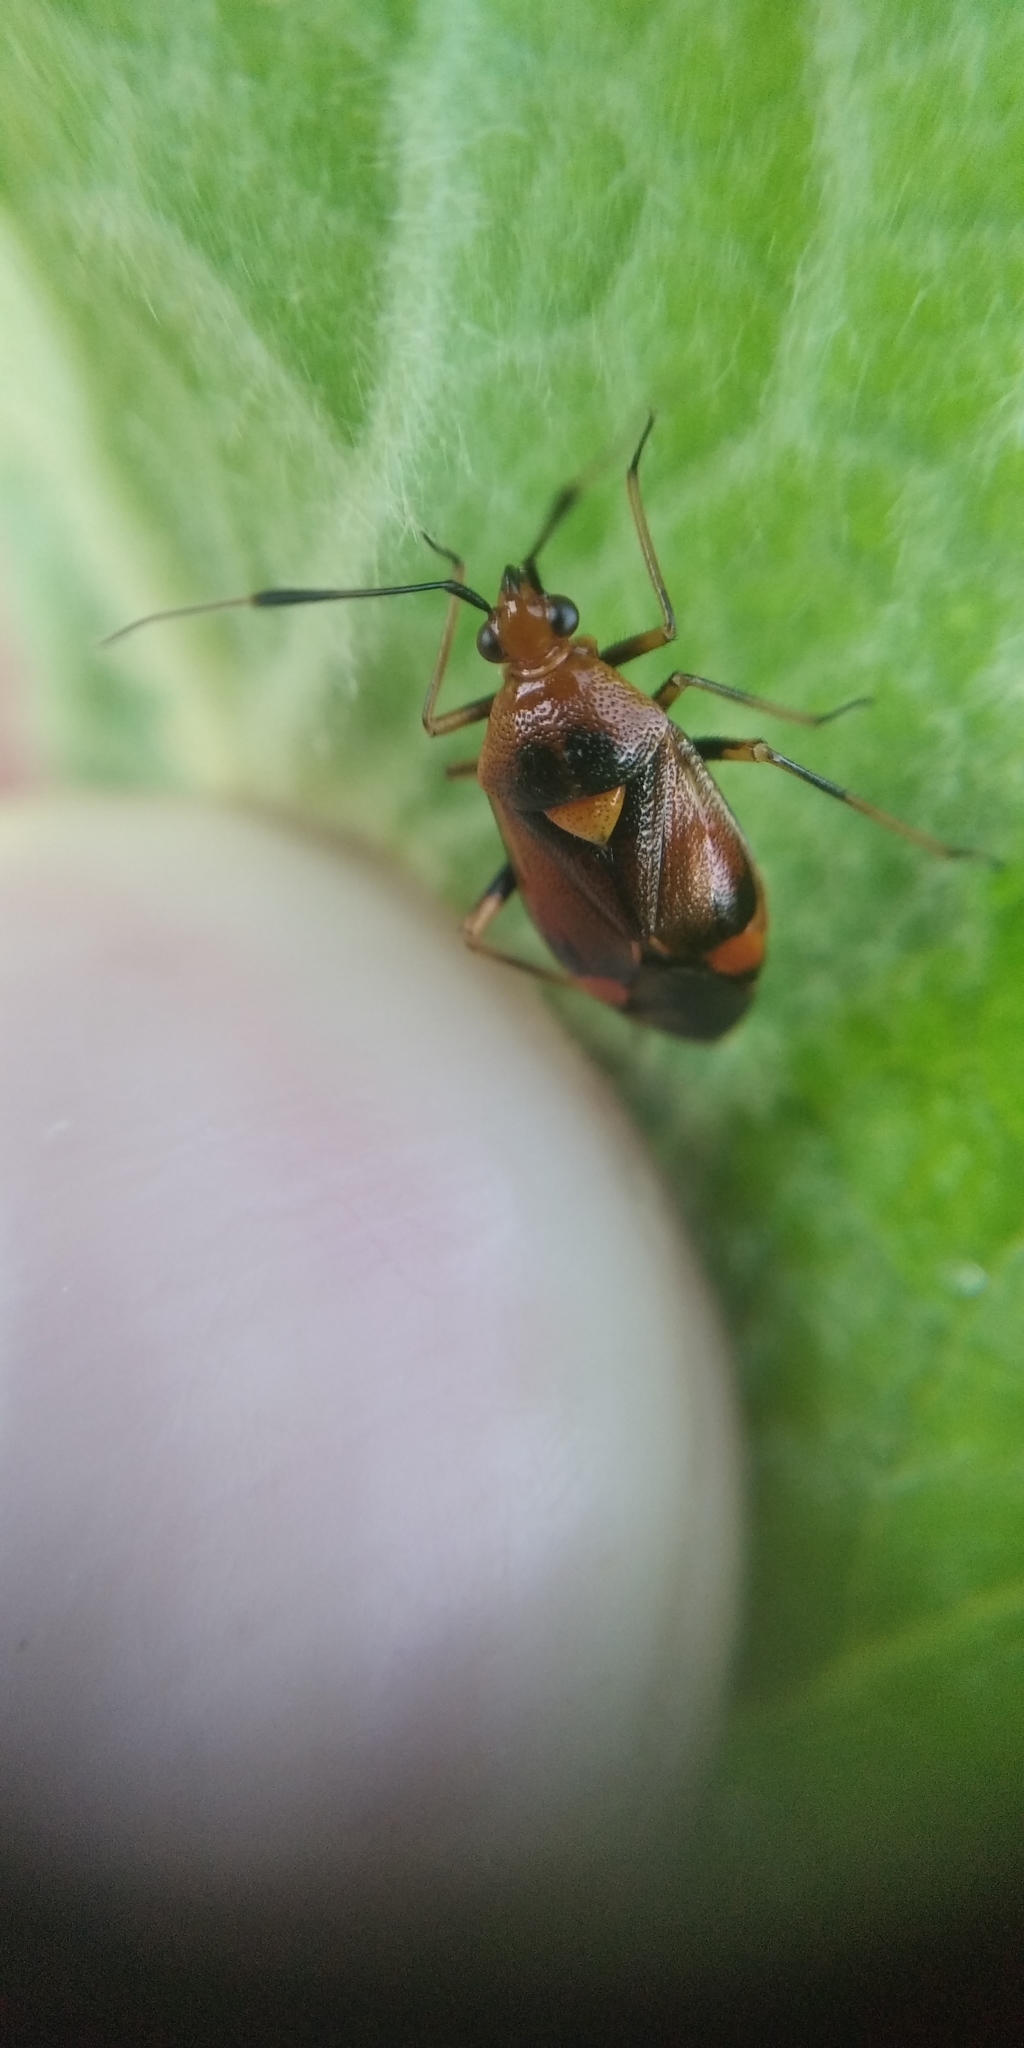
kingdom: Animalia
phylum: Arthropoda
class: Insecta
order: Hemiptera
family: Miridae
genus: Deraeocoris
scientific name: Deraeocoris ruber
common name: Plant bug
